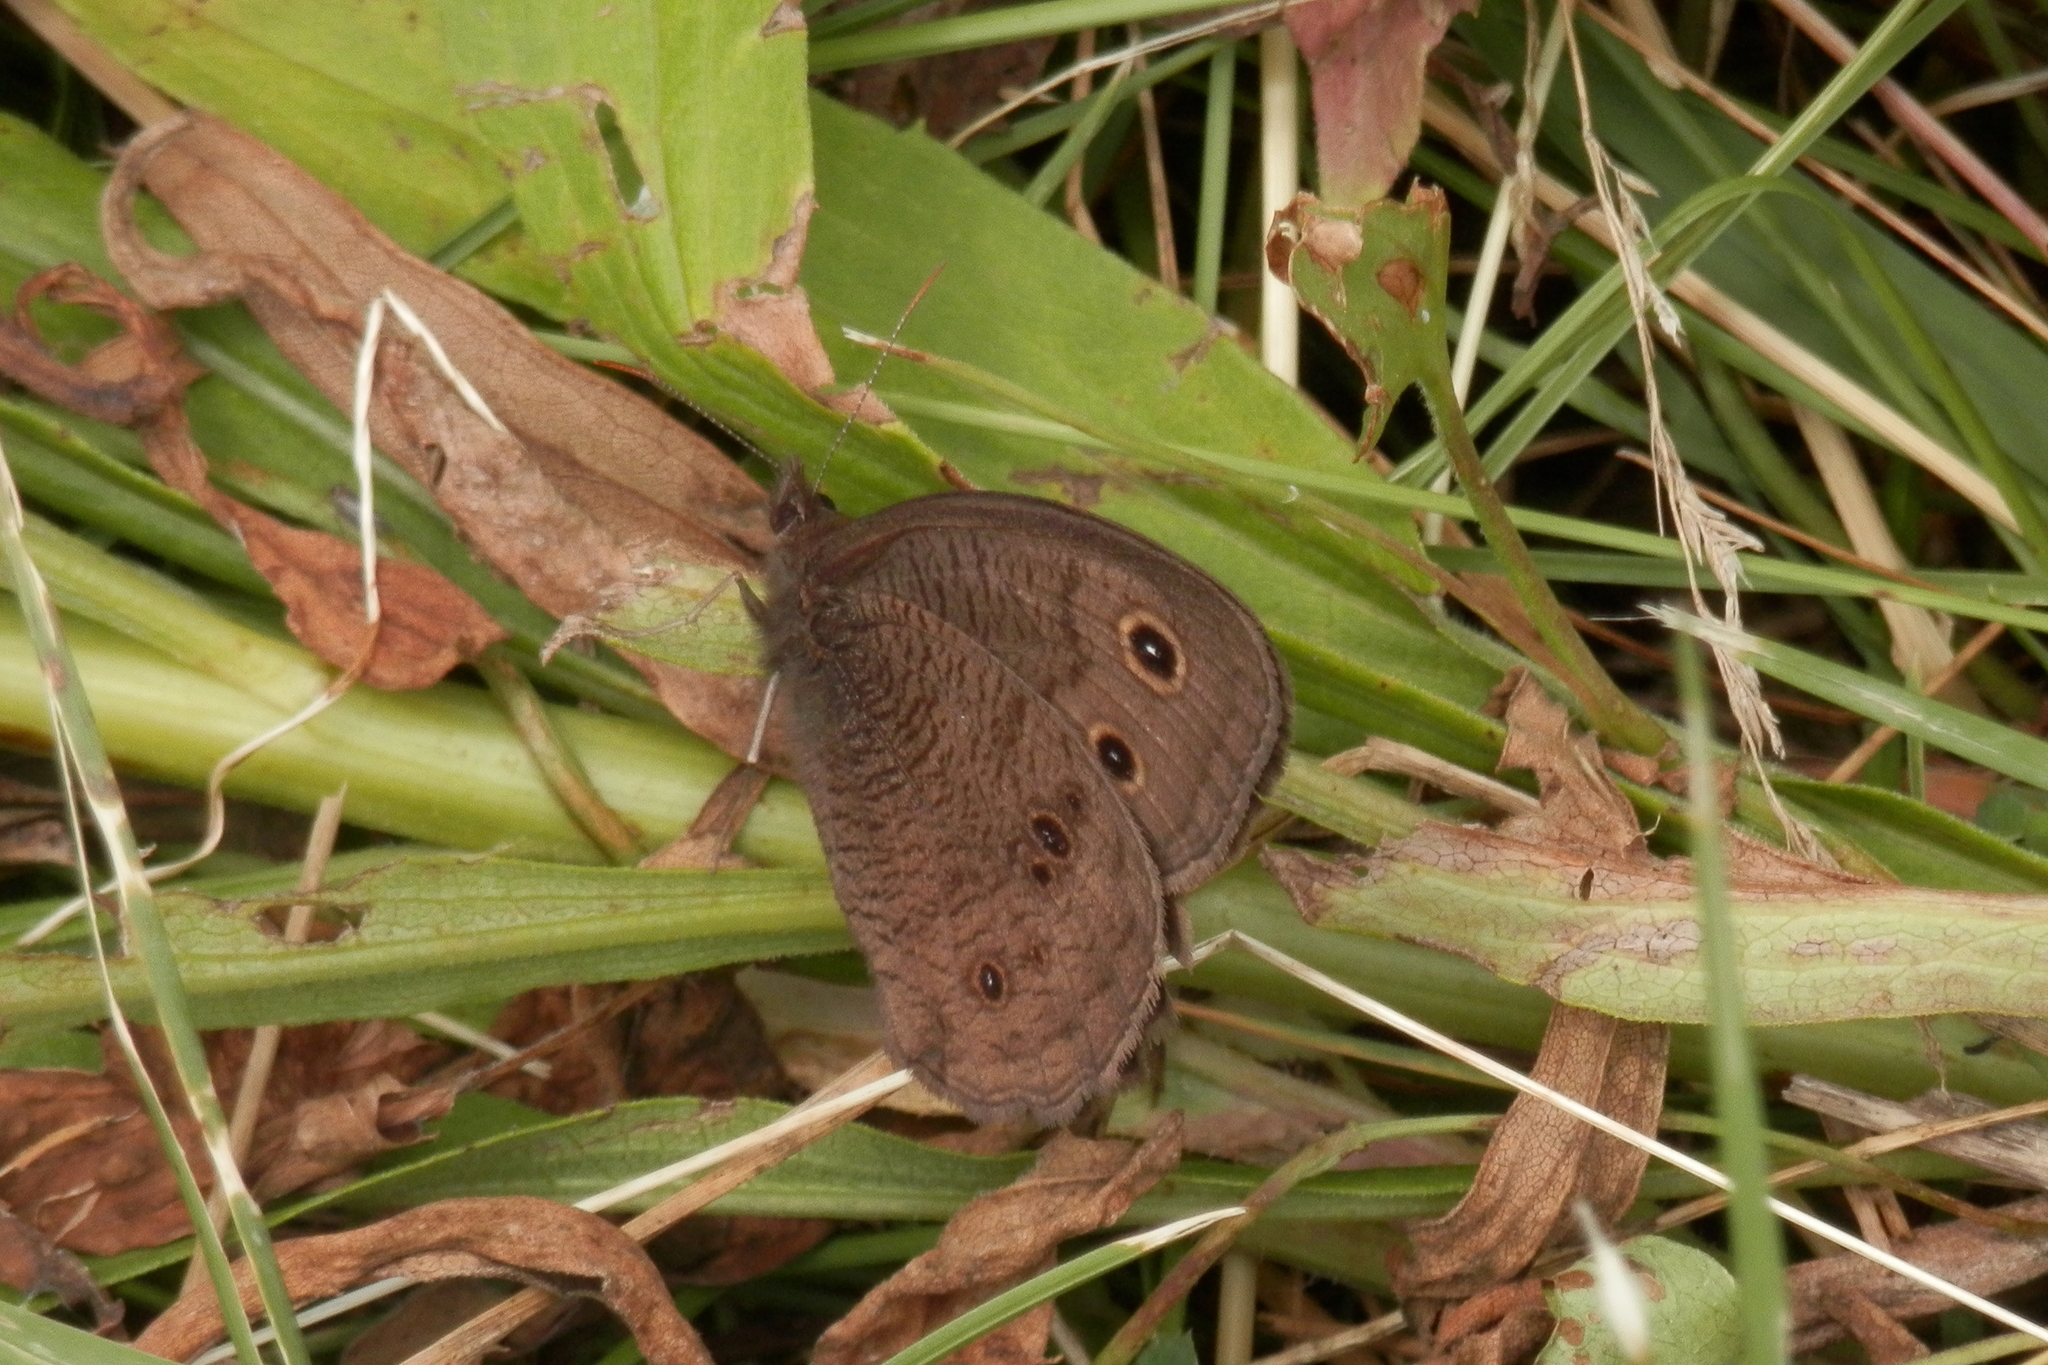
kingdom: Animalia
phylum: Arthropoda
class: Insecta
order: Lepidoptera
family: Nymphalidae
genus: Cercyonis
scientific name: Cercyonis pegala
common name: Common wood-nymph
